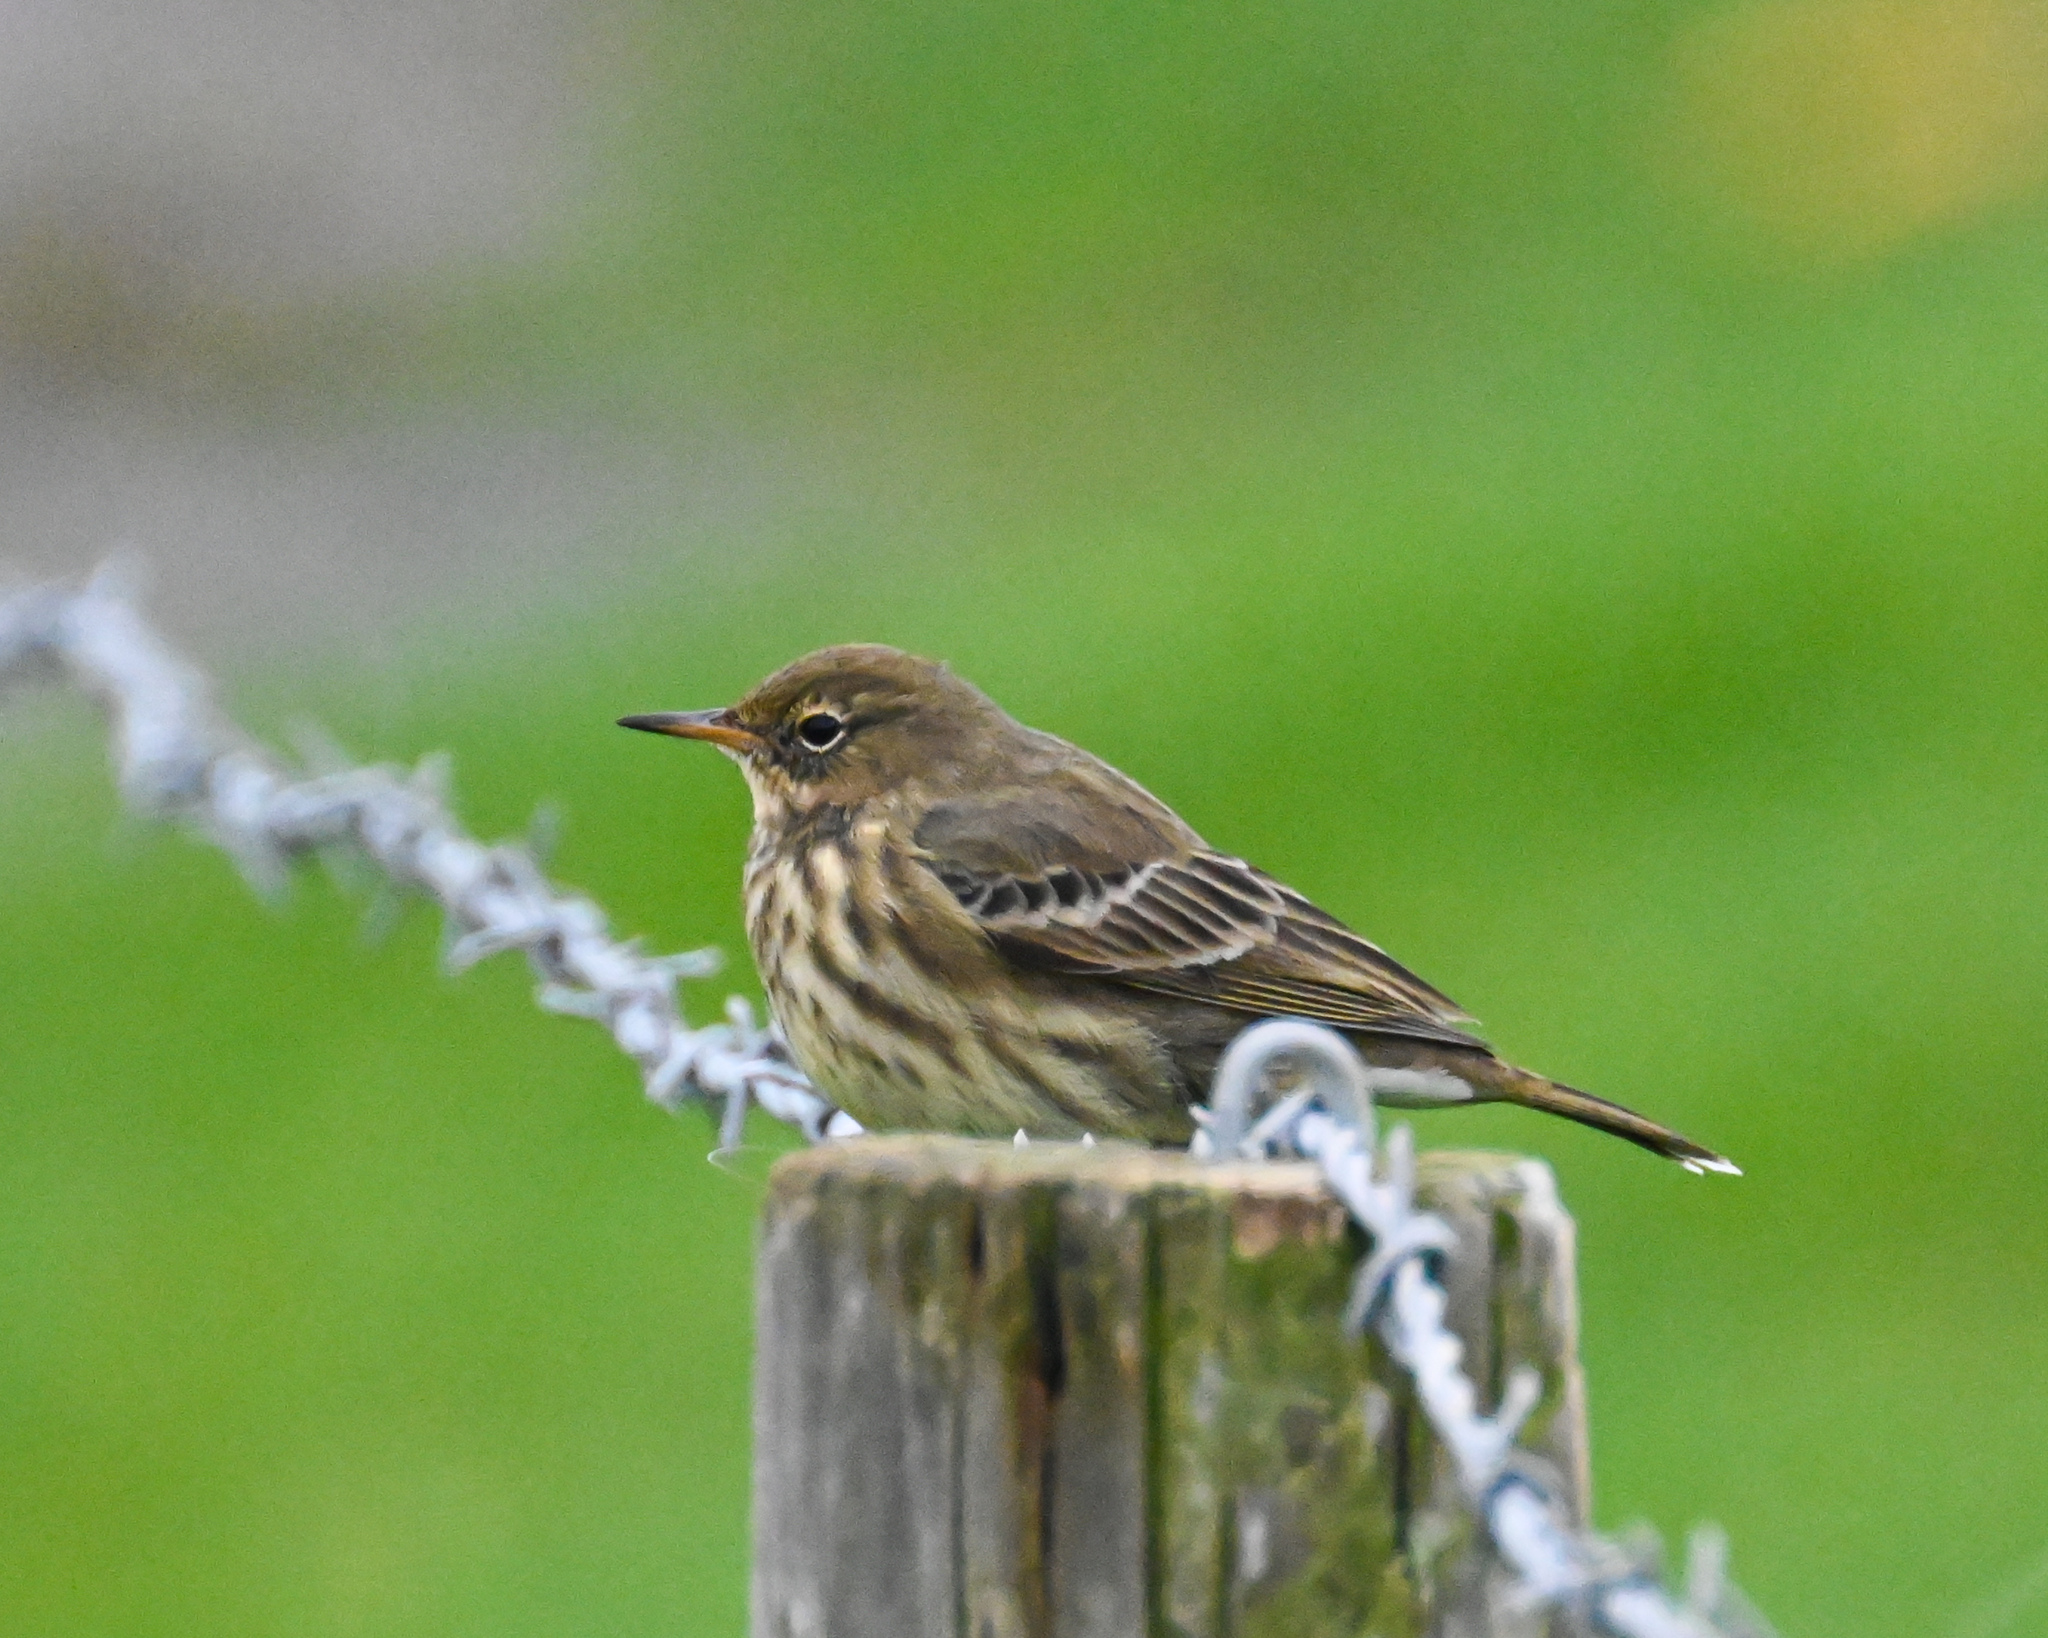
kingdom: Animalia
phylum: Chordata
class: Aves
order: Passeriformes
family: Motacillidae
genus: Anthus
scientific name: Anthus petrosus
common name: Eurasian rock pipit
